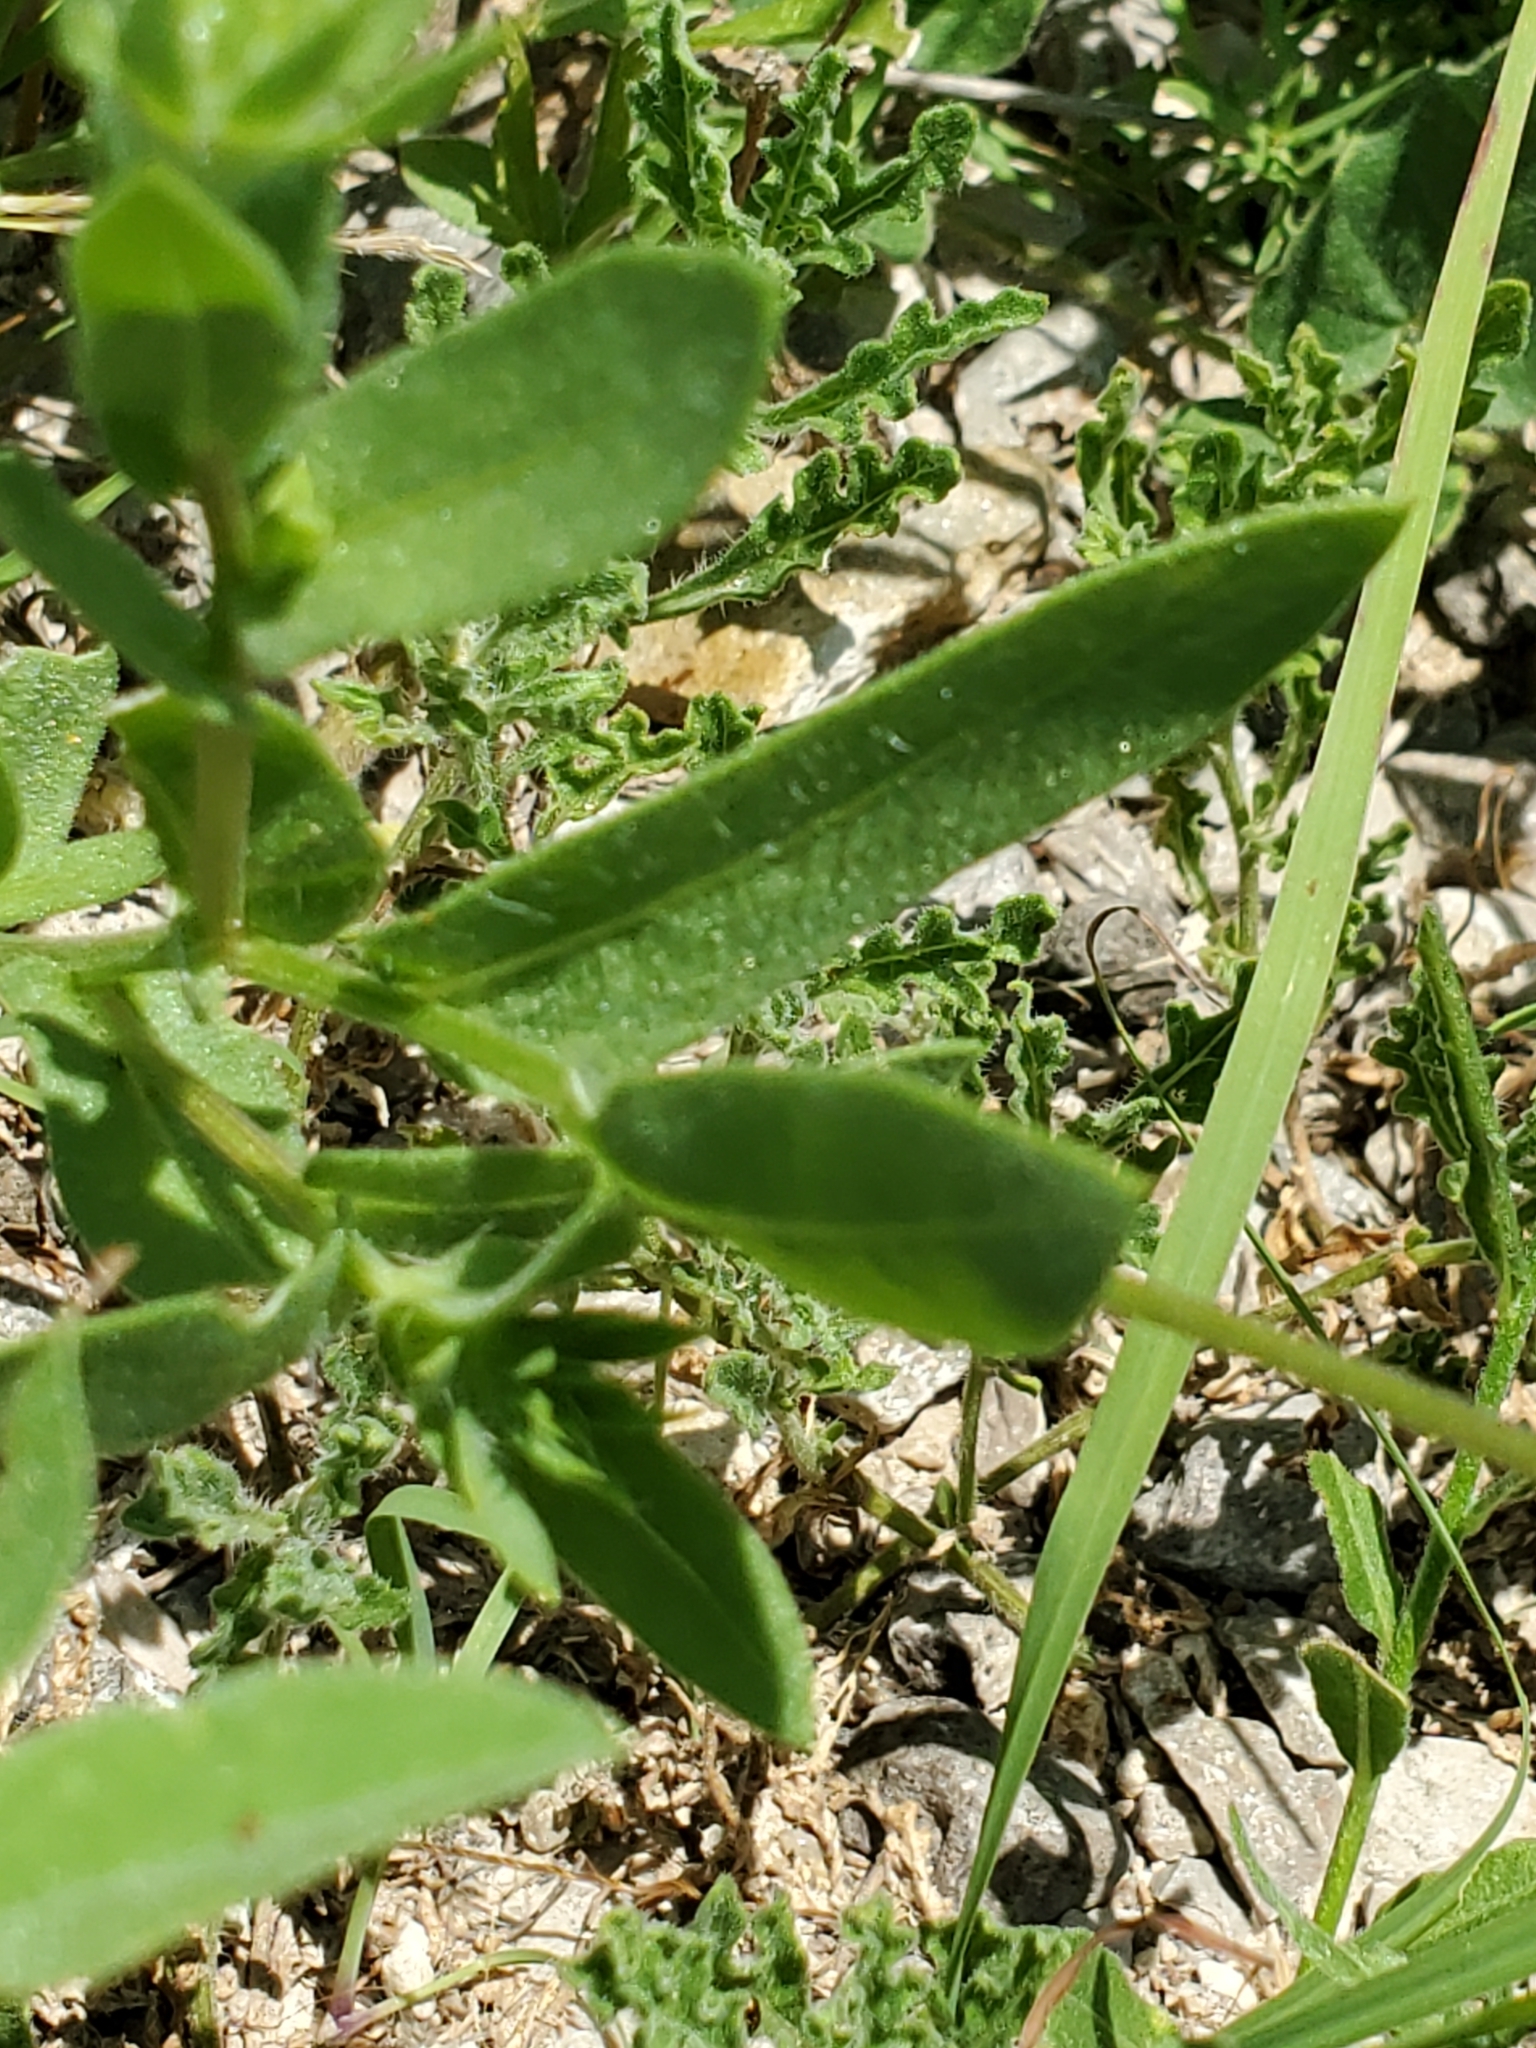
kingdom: Plantae
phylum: Tracheophyta
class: Magnoliopsida
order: Asterales
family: Asteraceae
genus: Gaillardia
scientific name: Gaillardia pulchella
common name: Firewheel
